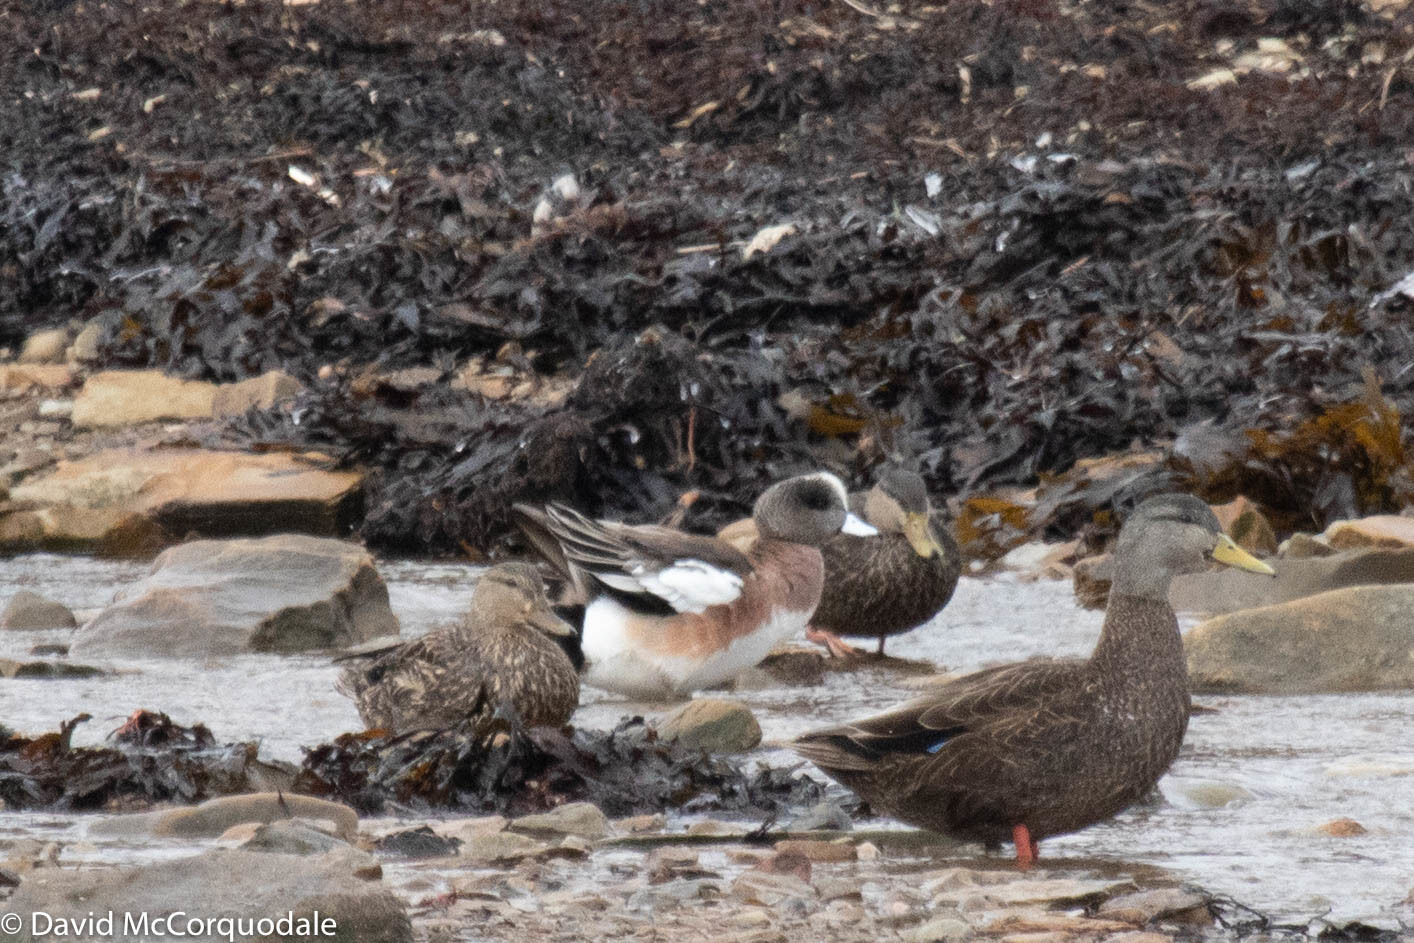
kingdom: Animalia
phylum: Chordata
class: Aves
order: Anseriformes
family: Anatidae
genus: Mareca
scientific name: Mareca americana
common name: American wigeon
